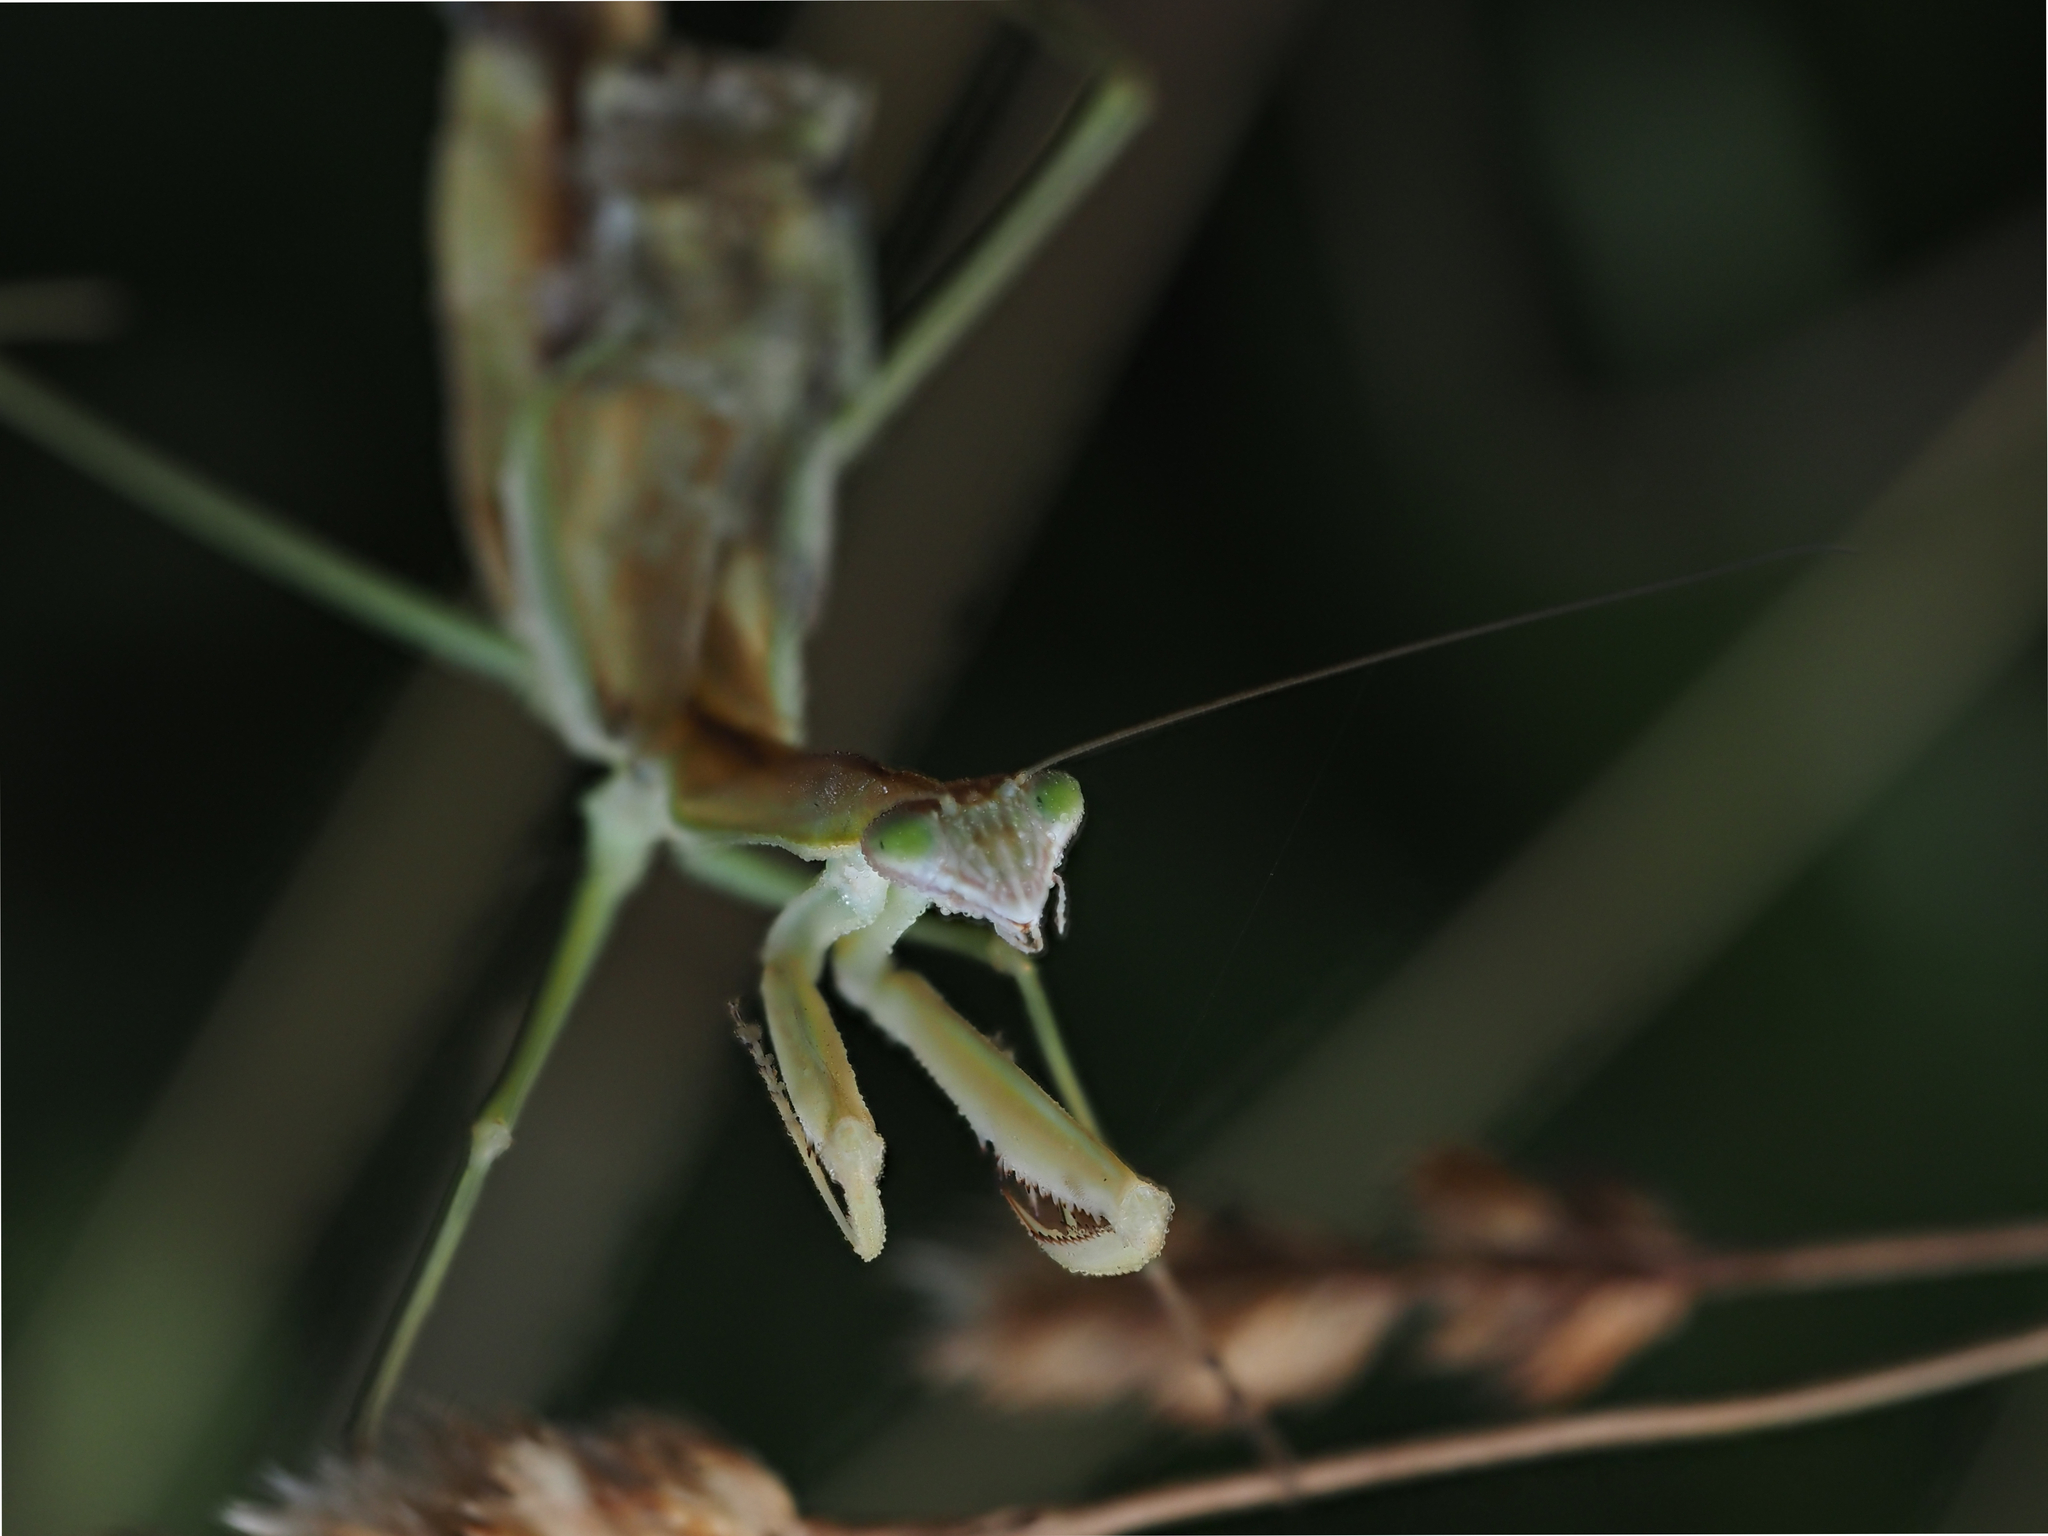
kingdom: Animalia
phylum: Arthropoda
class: Insecta
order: Mantodea
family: Mantidae
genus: Tenodera
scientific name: Tenodera australasiae
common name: Purple-winged mantis
